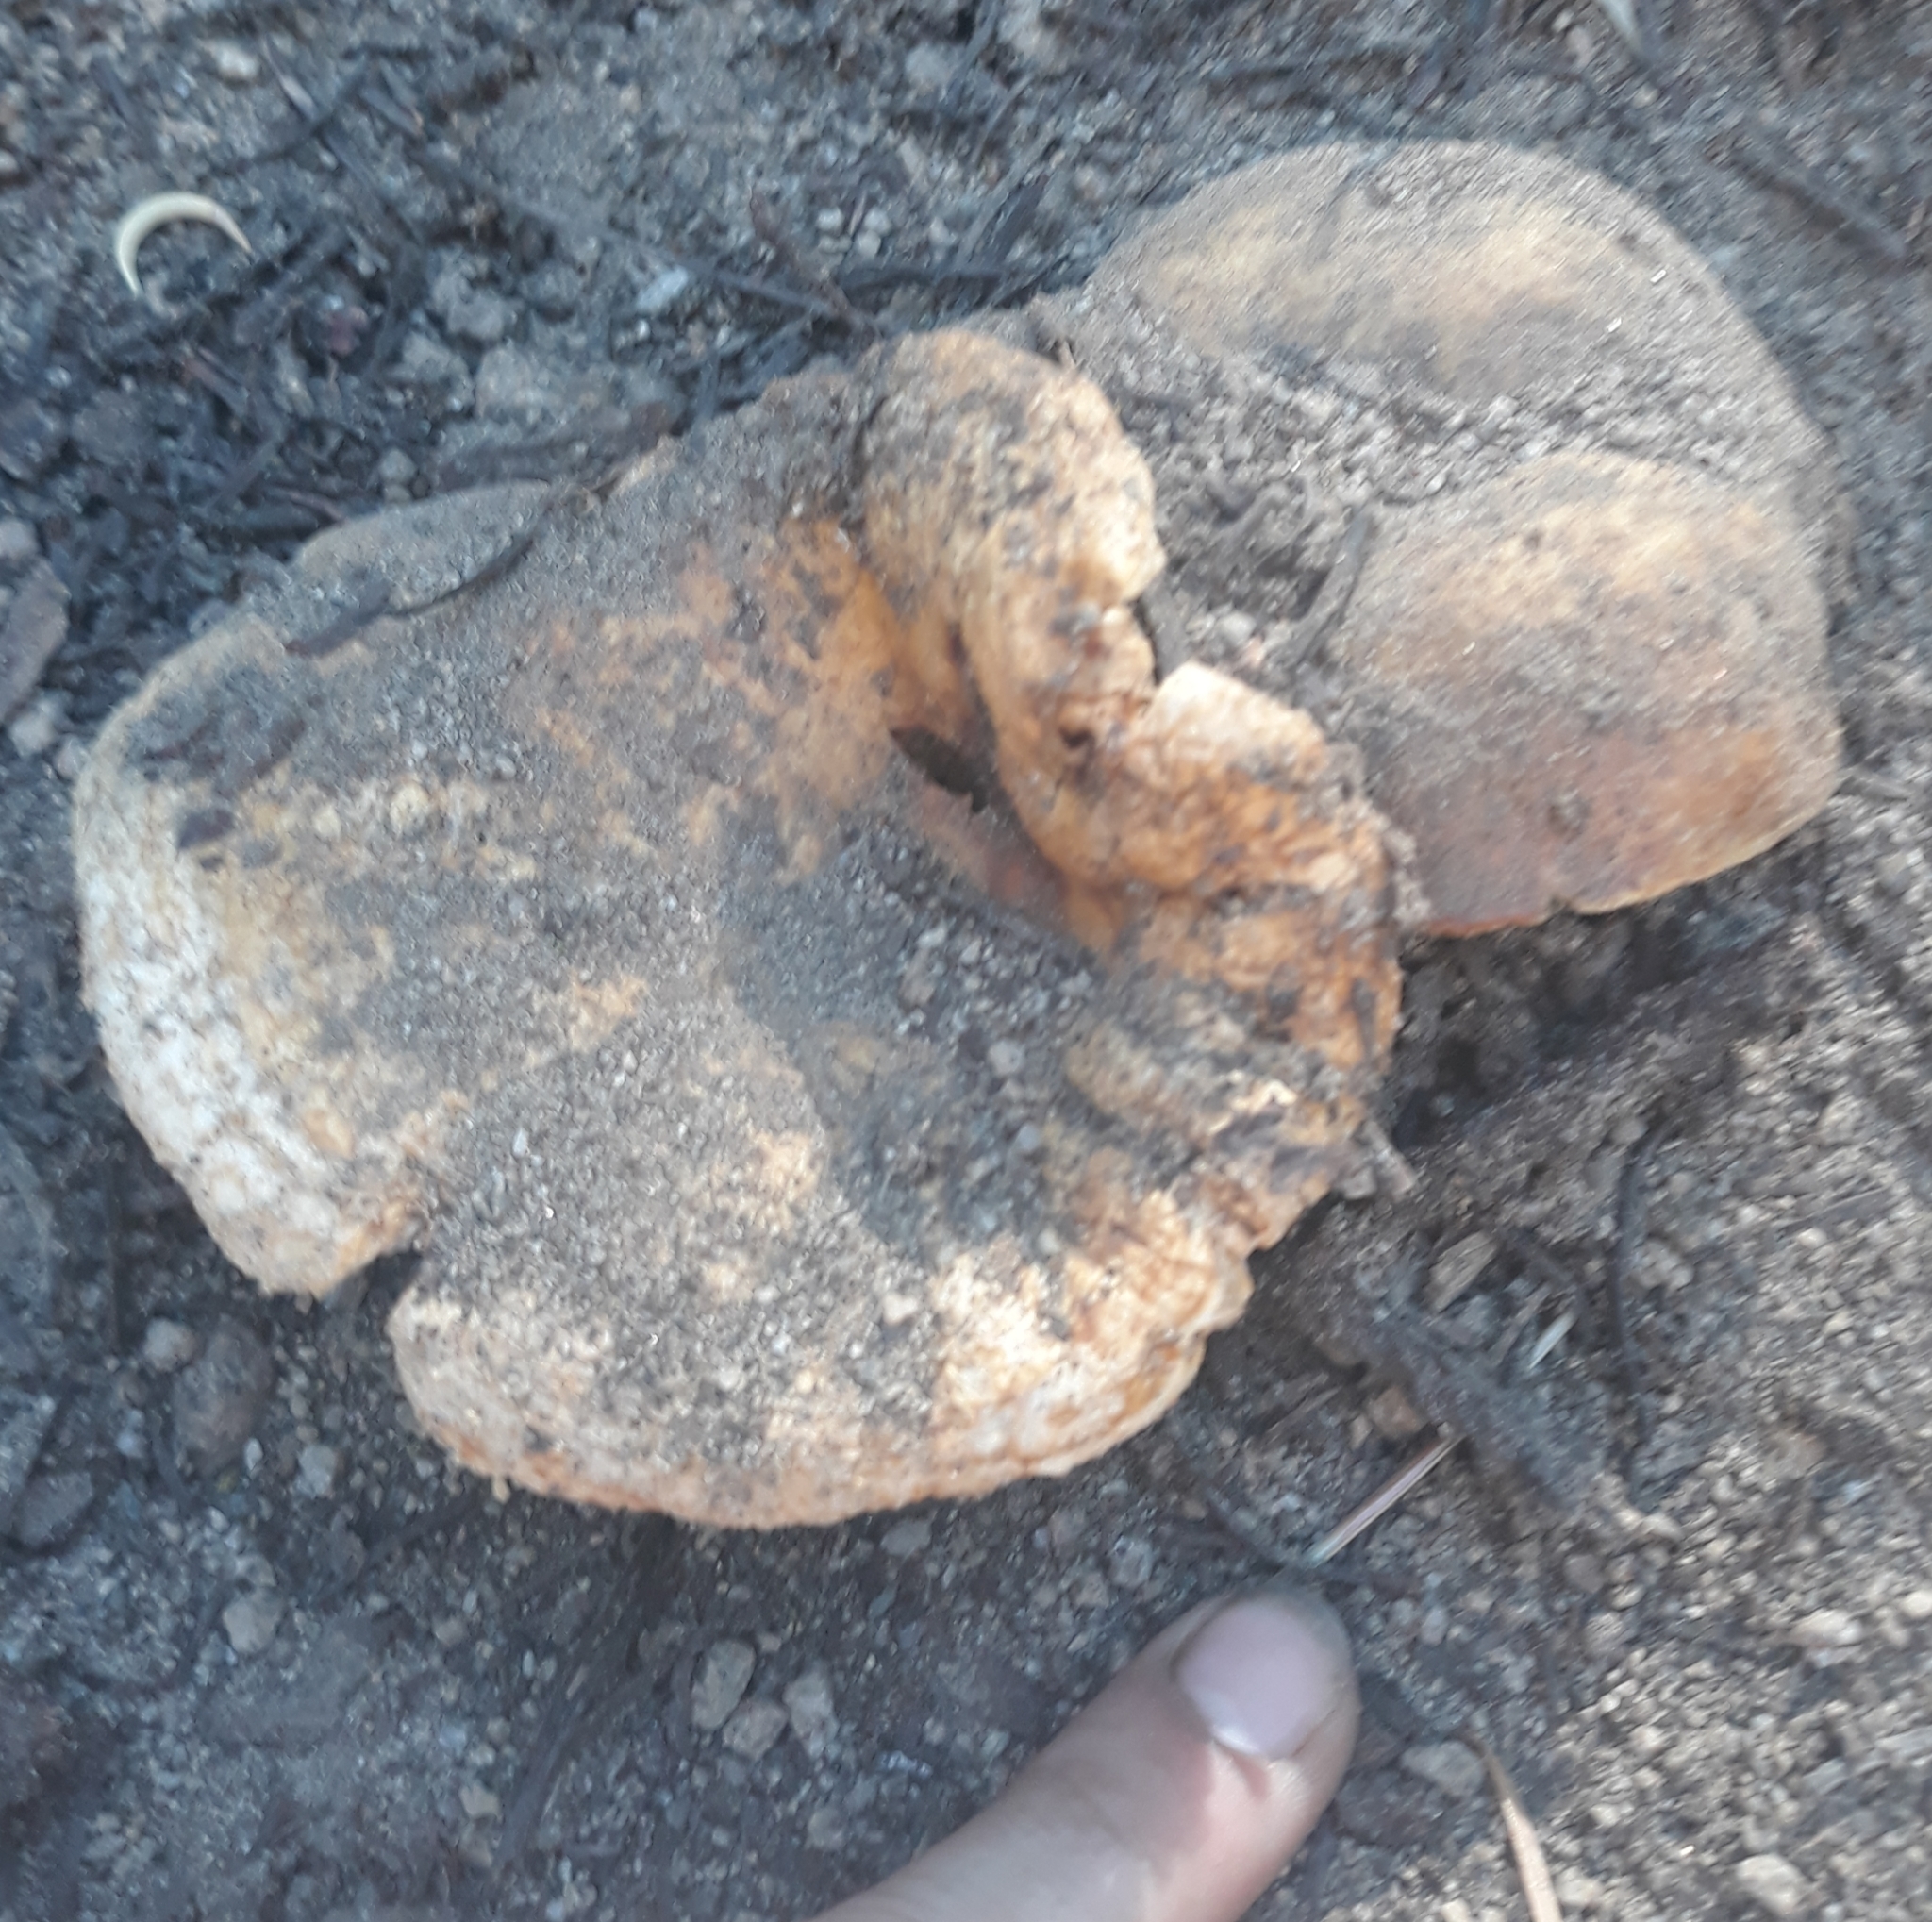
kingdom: Fungi
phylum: Basidiomycota
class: Agaricomycetes
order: Russulales
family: Russulaceae
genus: Lactarius
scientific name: Lactarius scrobiculatus
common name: Spotted milkcap
